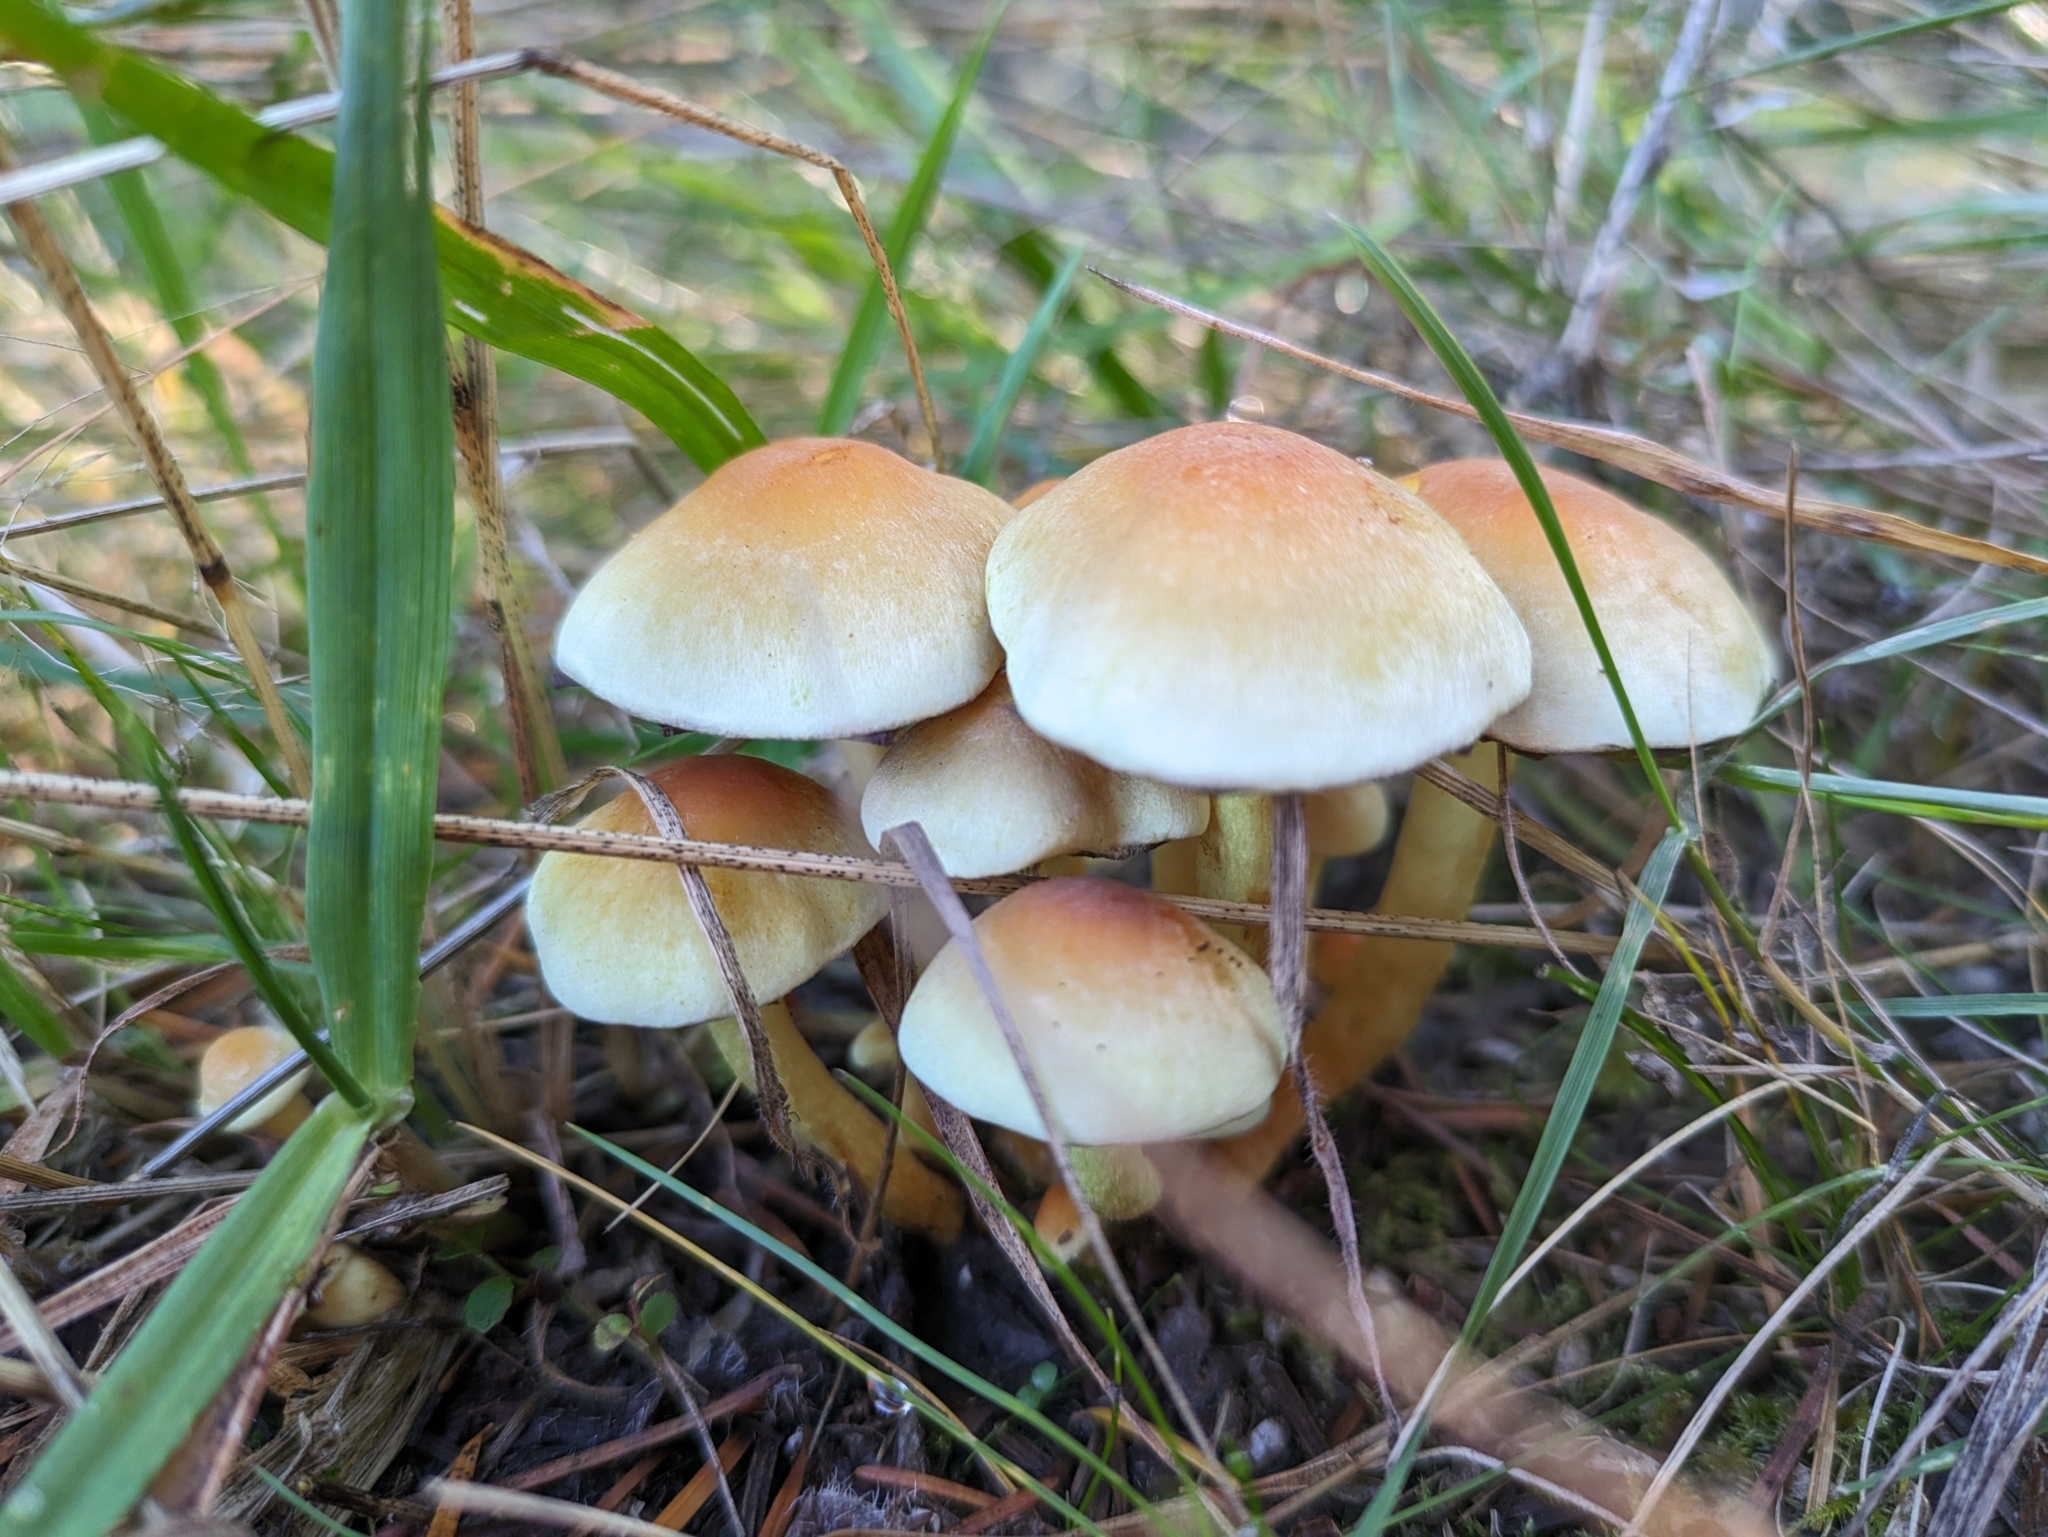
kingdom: Fungi
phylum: Basidiomycota
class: Agaricomycetes
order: Agaricales
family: Strophariaceae
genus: Hypholoma
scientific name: Hypholoma capnoides
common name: Conifer tuft
